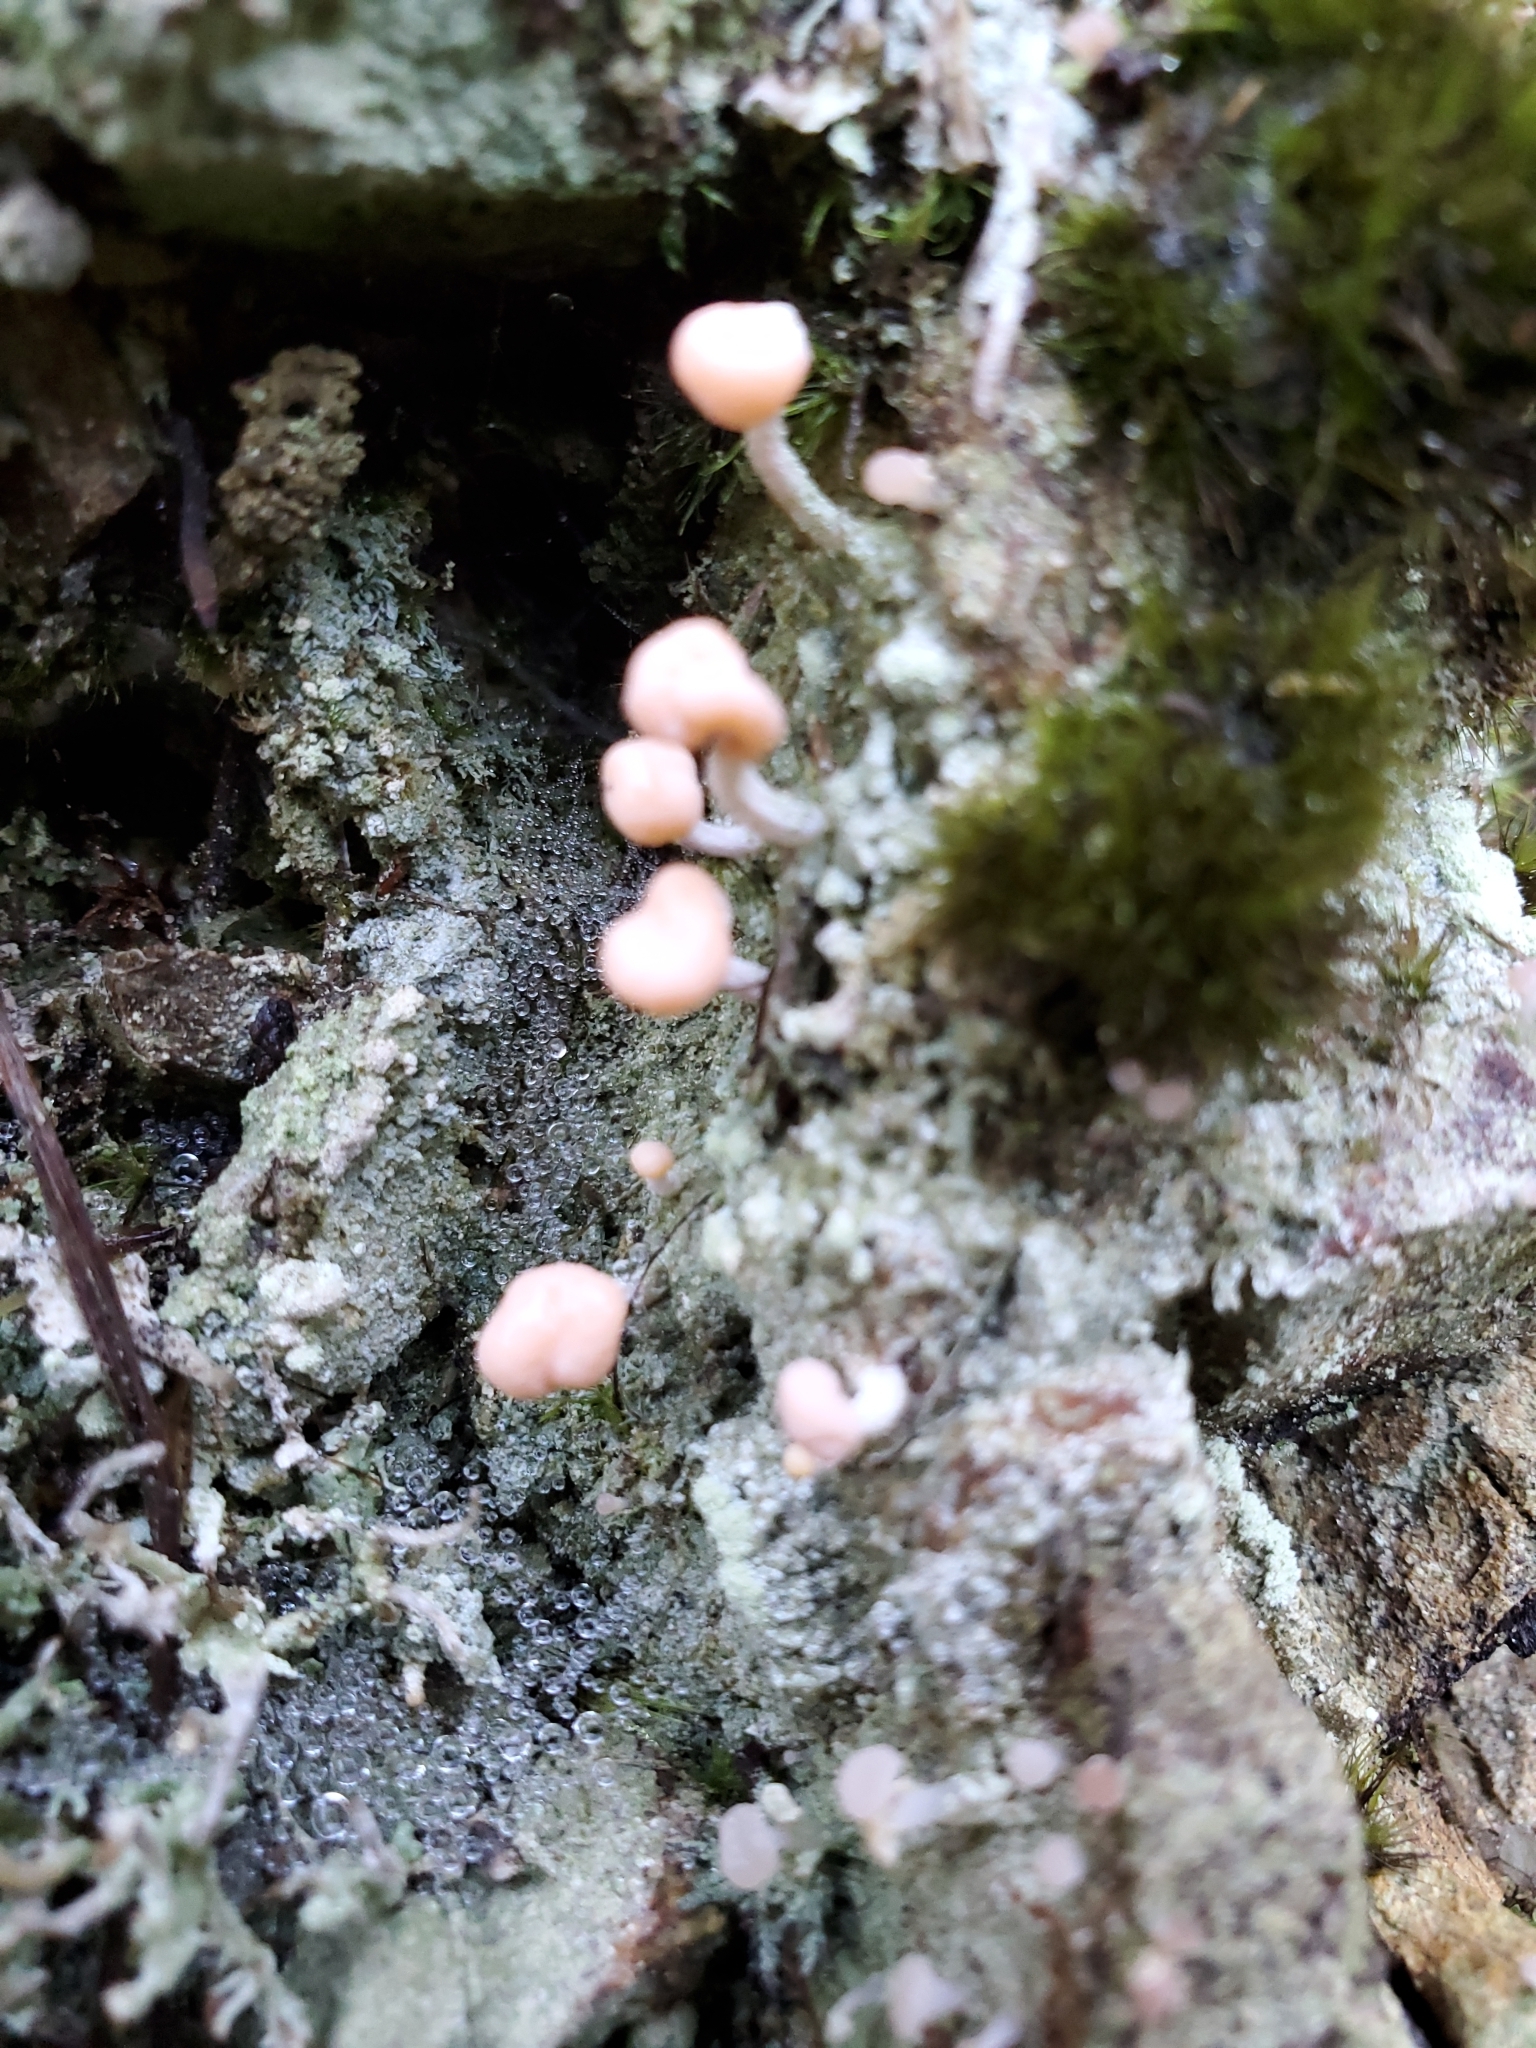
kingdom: Fungi
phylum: Ascomycota
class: Lecanoromycetes
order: Pertusariales
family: Icmadophilaceae
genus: Dibaeis
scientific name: Dibaeis arcuata
